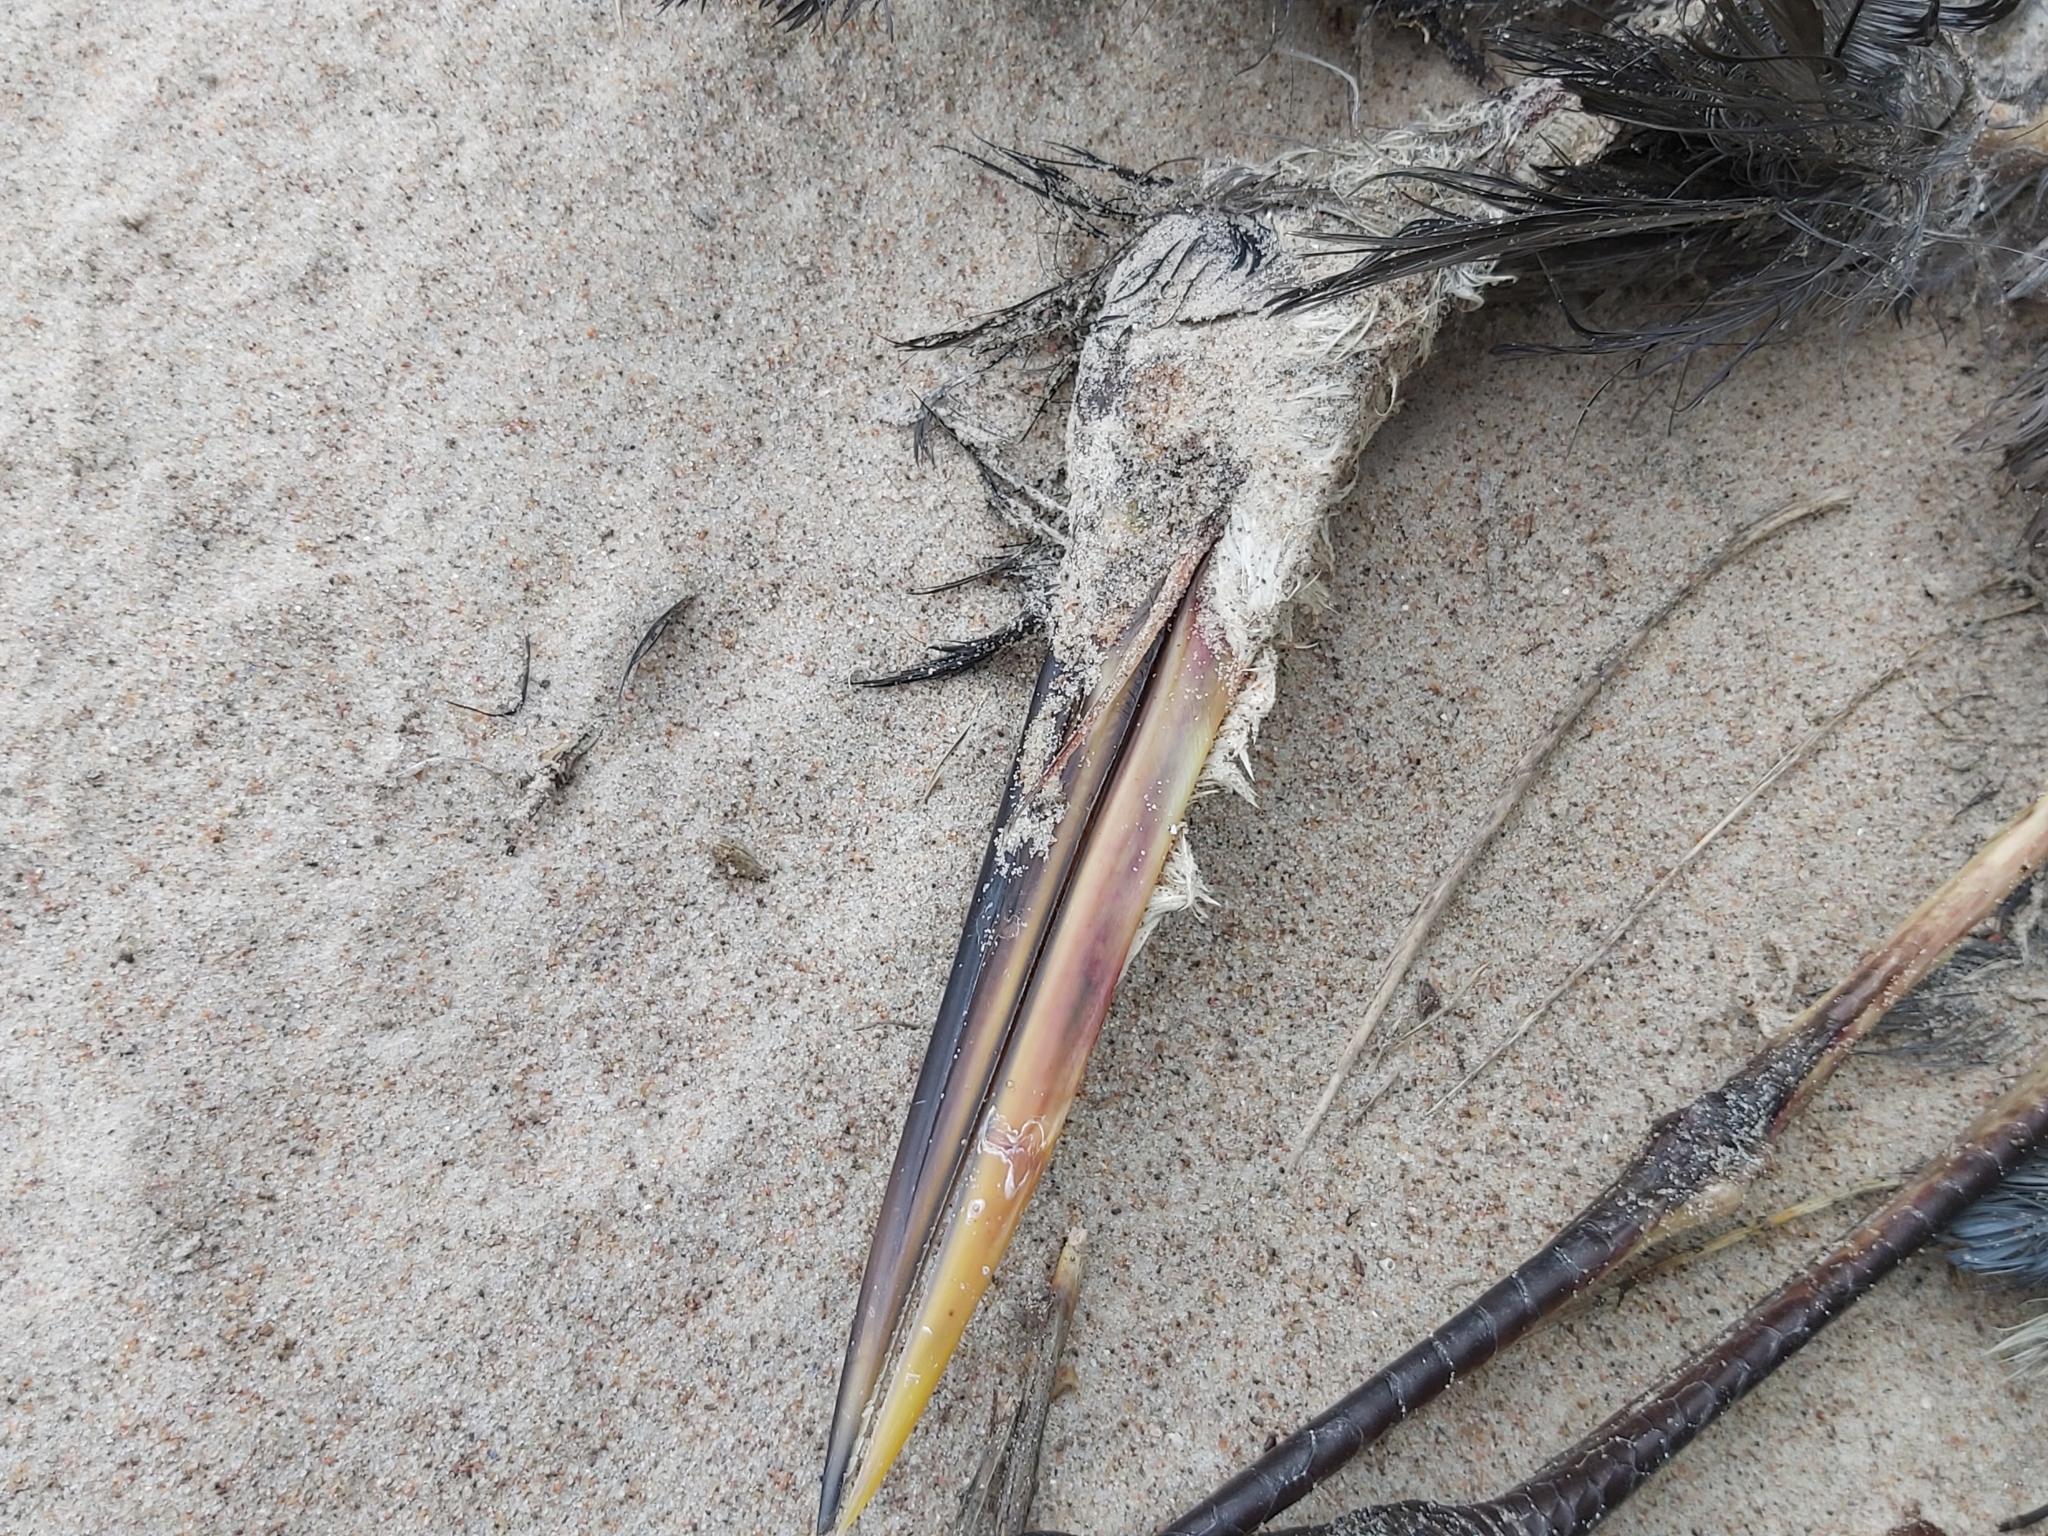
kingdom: Animalia
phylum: Chordata
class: Aves
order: Pelecaniformes
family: Ardeidae
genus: Ardea
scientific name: Ardea cinerea
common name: Grey heron
